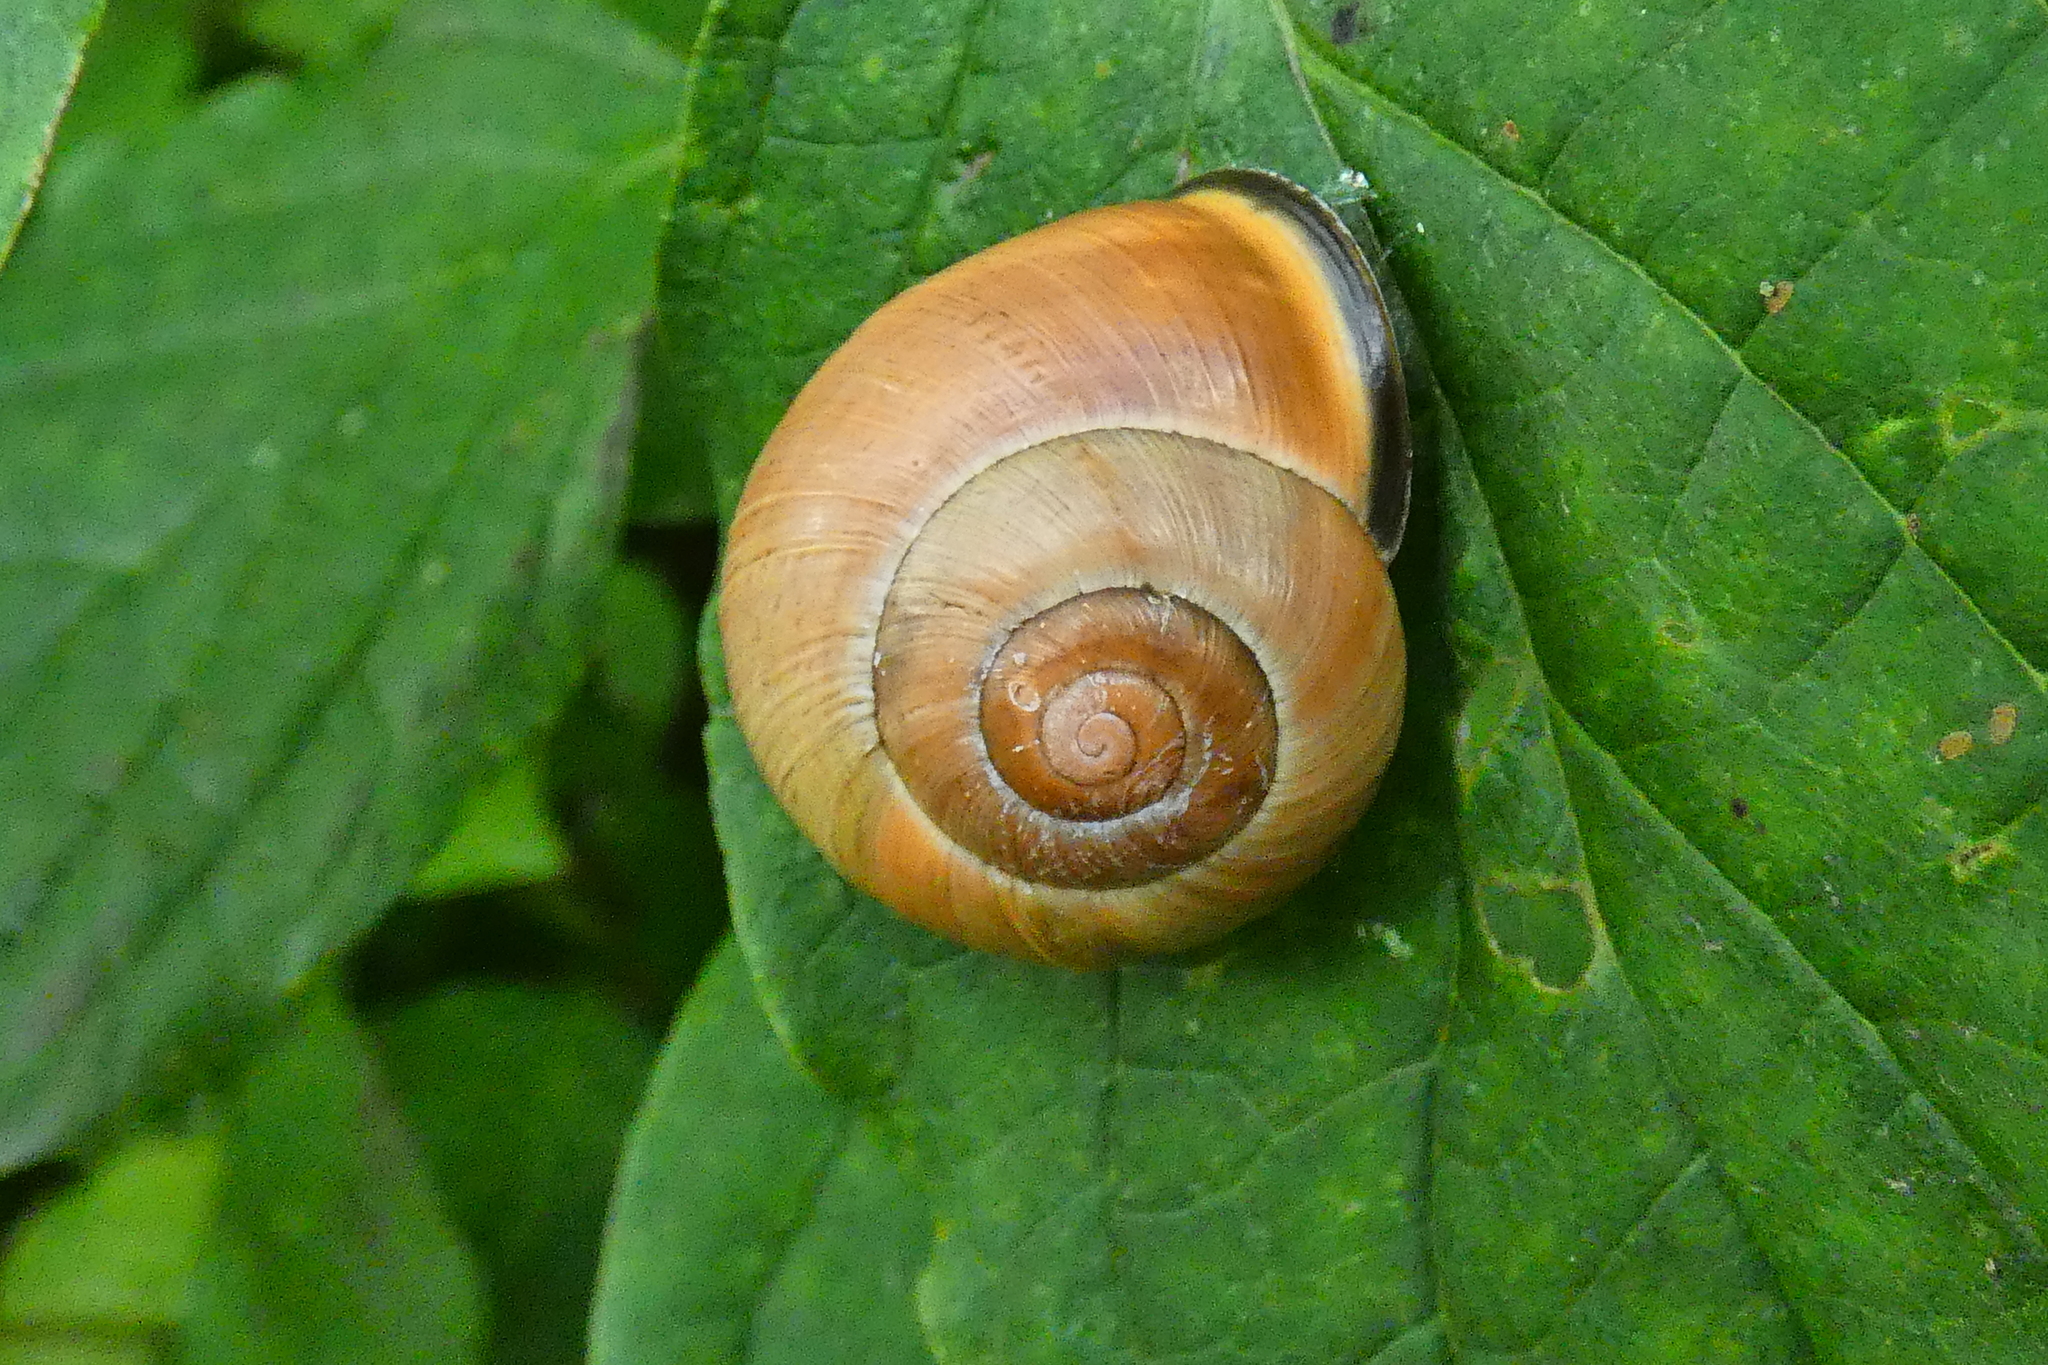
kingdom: Animalia
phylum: Mollusca
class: Gastropoda
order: Stylommatophora
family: Helicidae
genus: Cepaea
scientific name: Cepaea nemoralis
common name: Grovesnail
